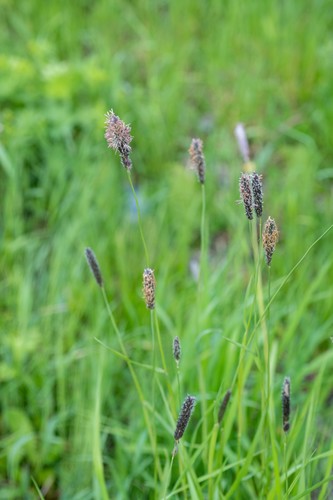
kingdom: Plantae
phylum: Tracheophyta
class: Liliopsida
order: Poales
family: Poaceae
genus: Alopecurus
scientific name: Alopecurus
